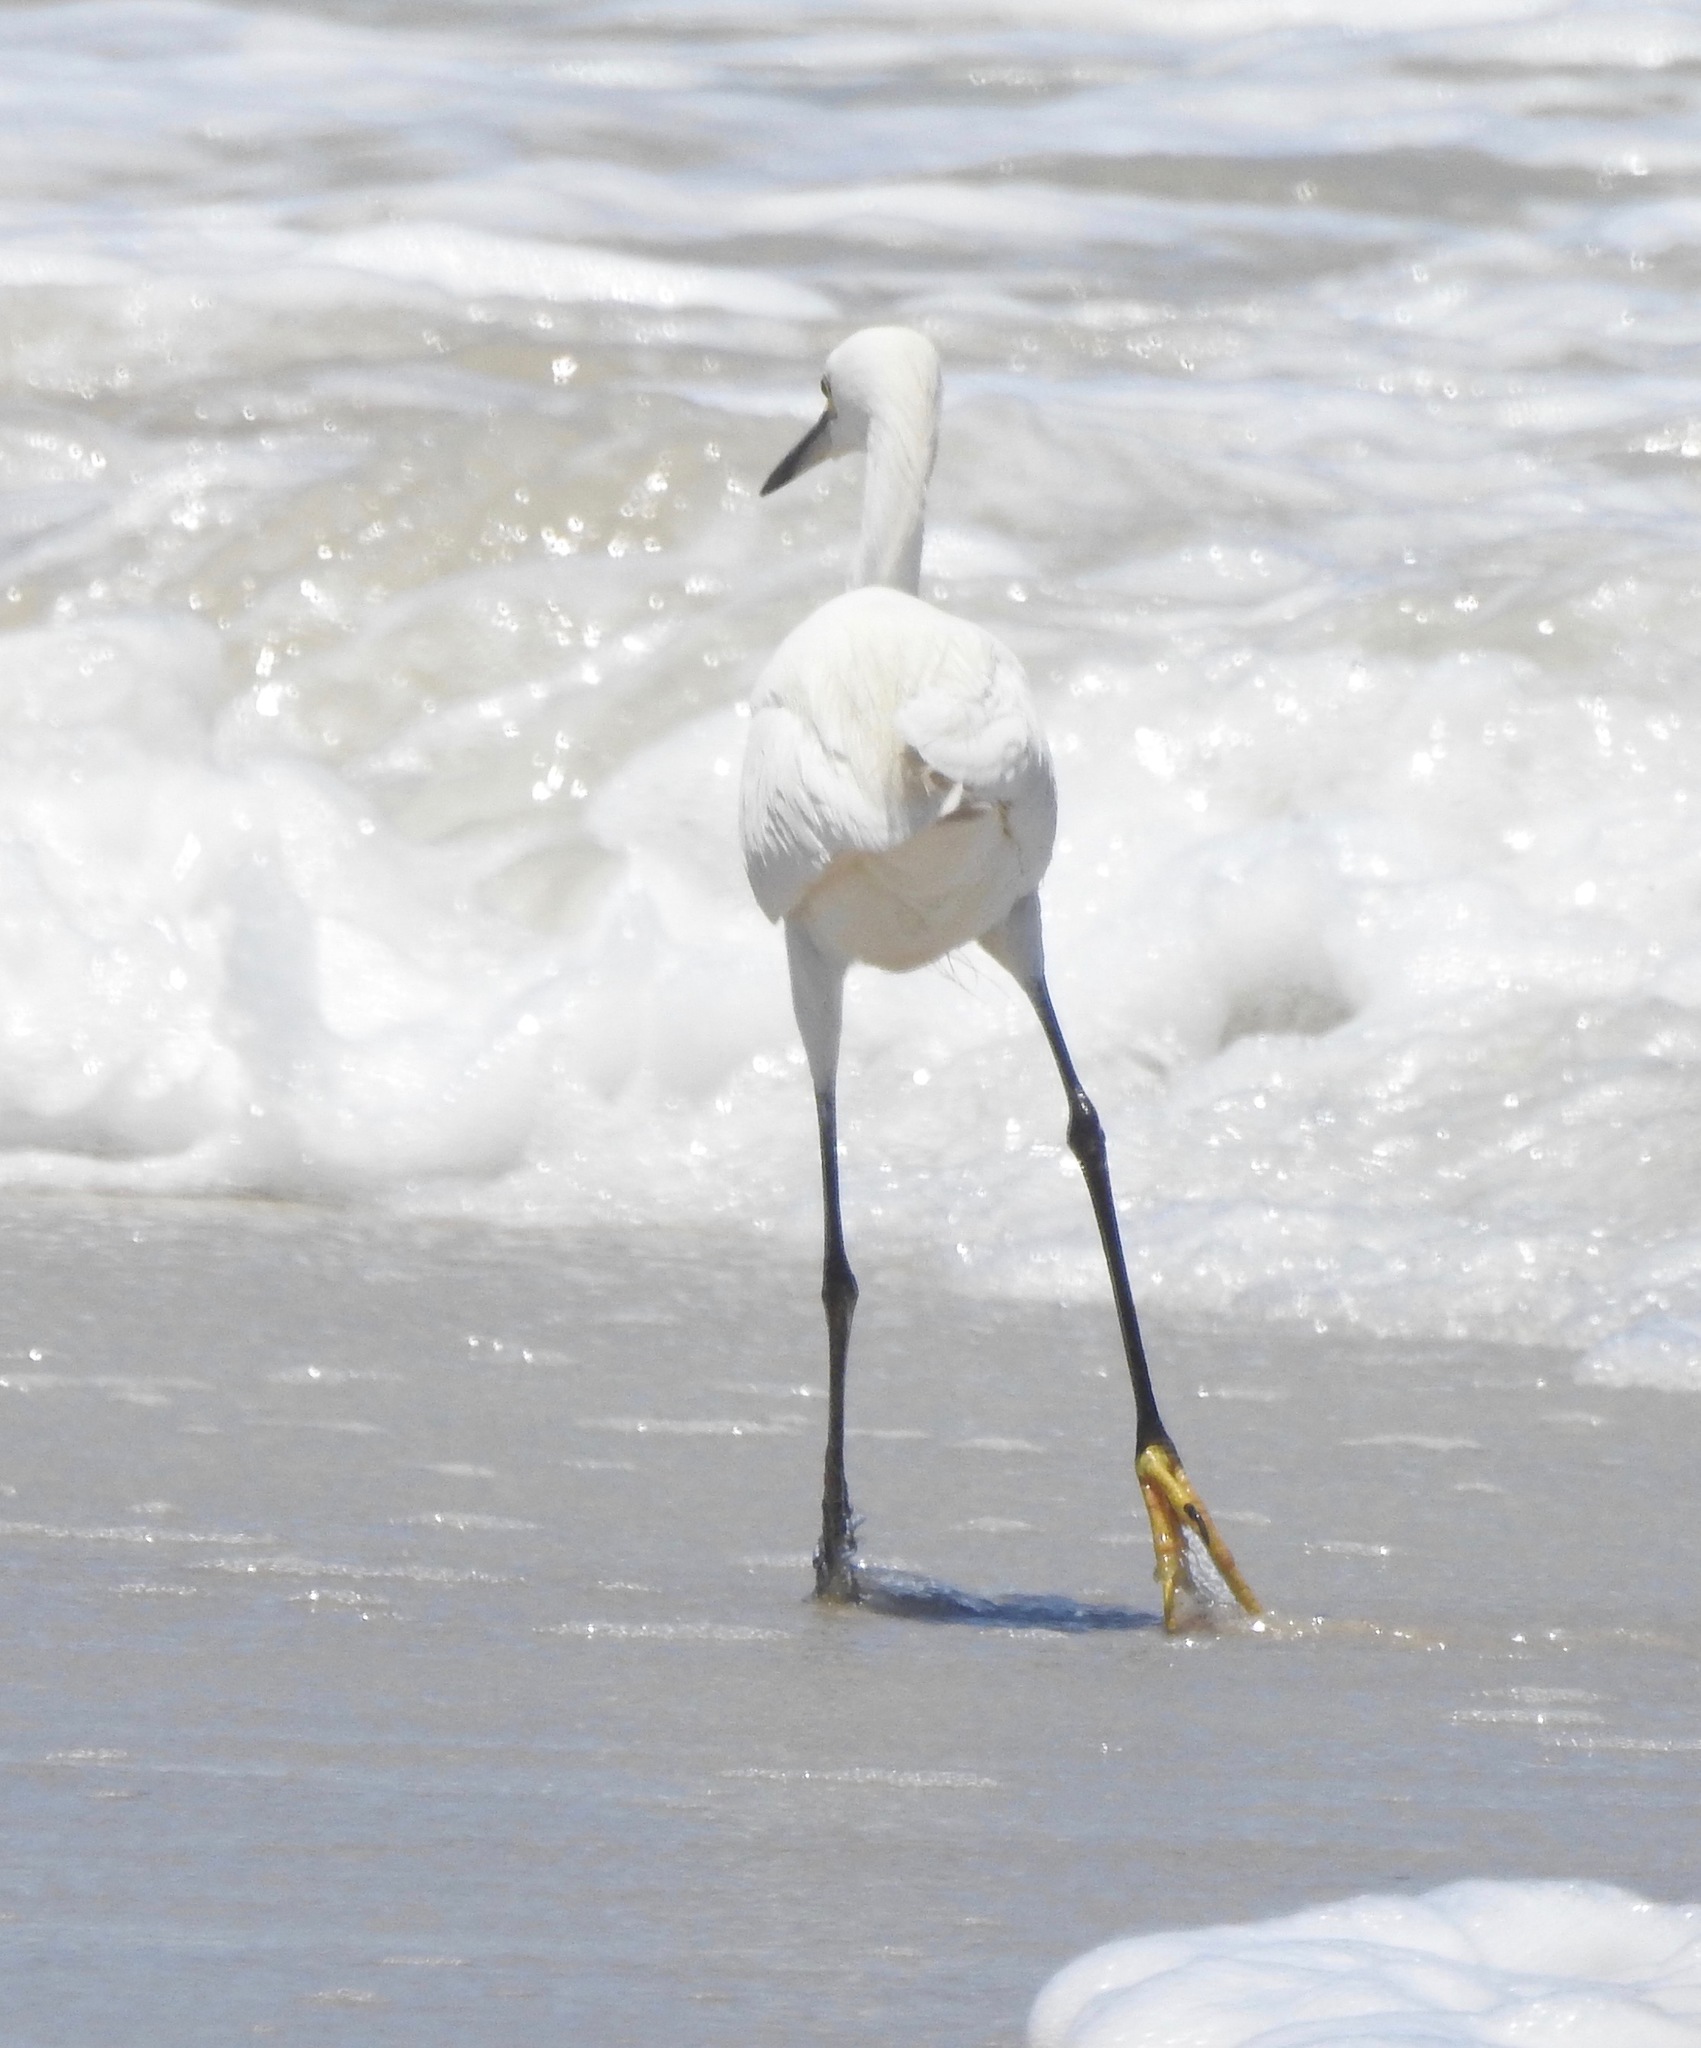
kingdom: Animalia
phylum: Chordata
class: Aves
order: Pelecaniformes
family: Ardeidae
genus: Egretta
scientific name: Egretta thula
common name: Snowy egret
